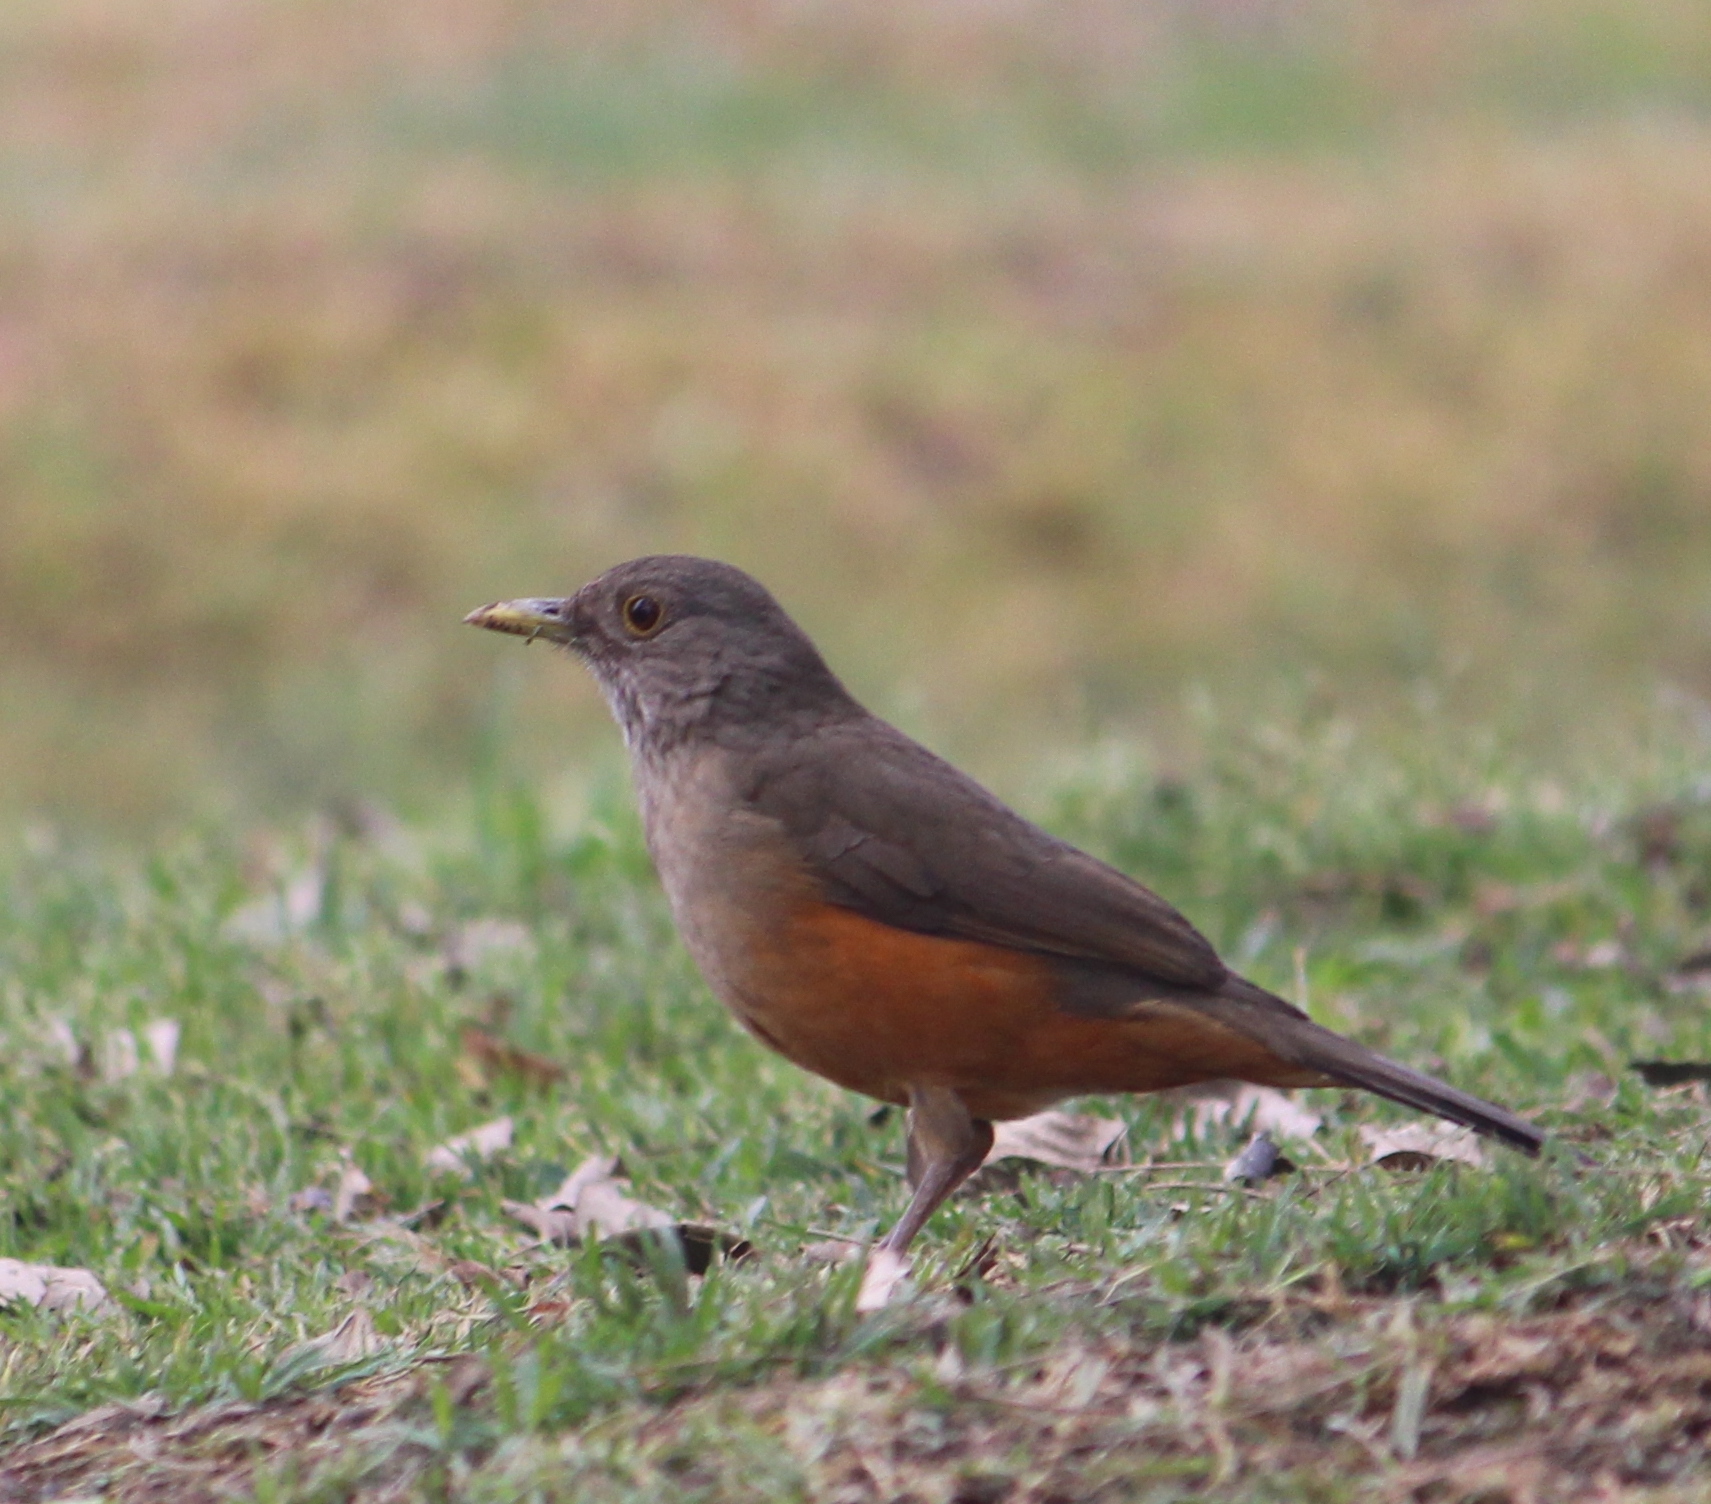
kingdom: Animalia
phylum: Chordata
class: Aves
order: Passeriformes
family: Turdidae
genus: Turdus
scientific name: Turdus rufiventris
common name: Rufous-bellied thrush
